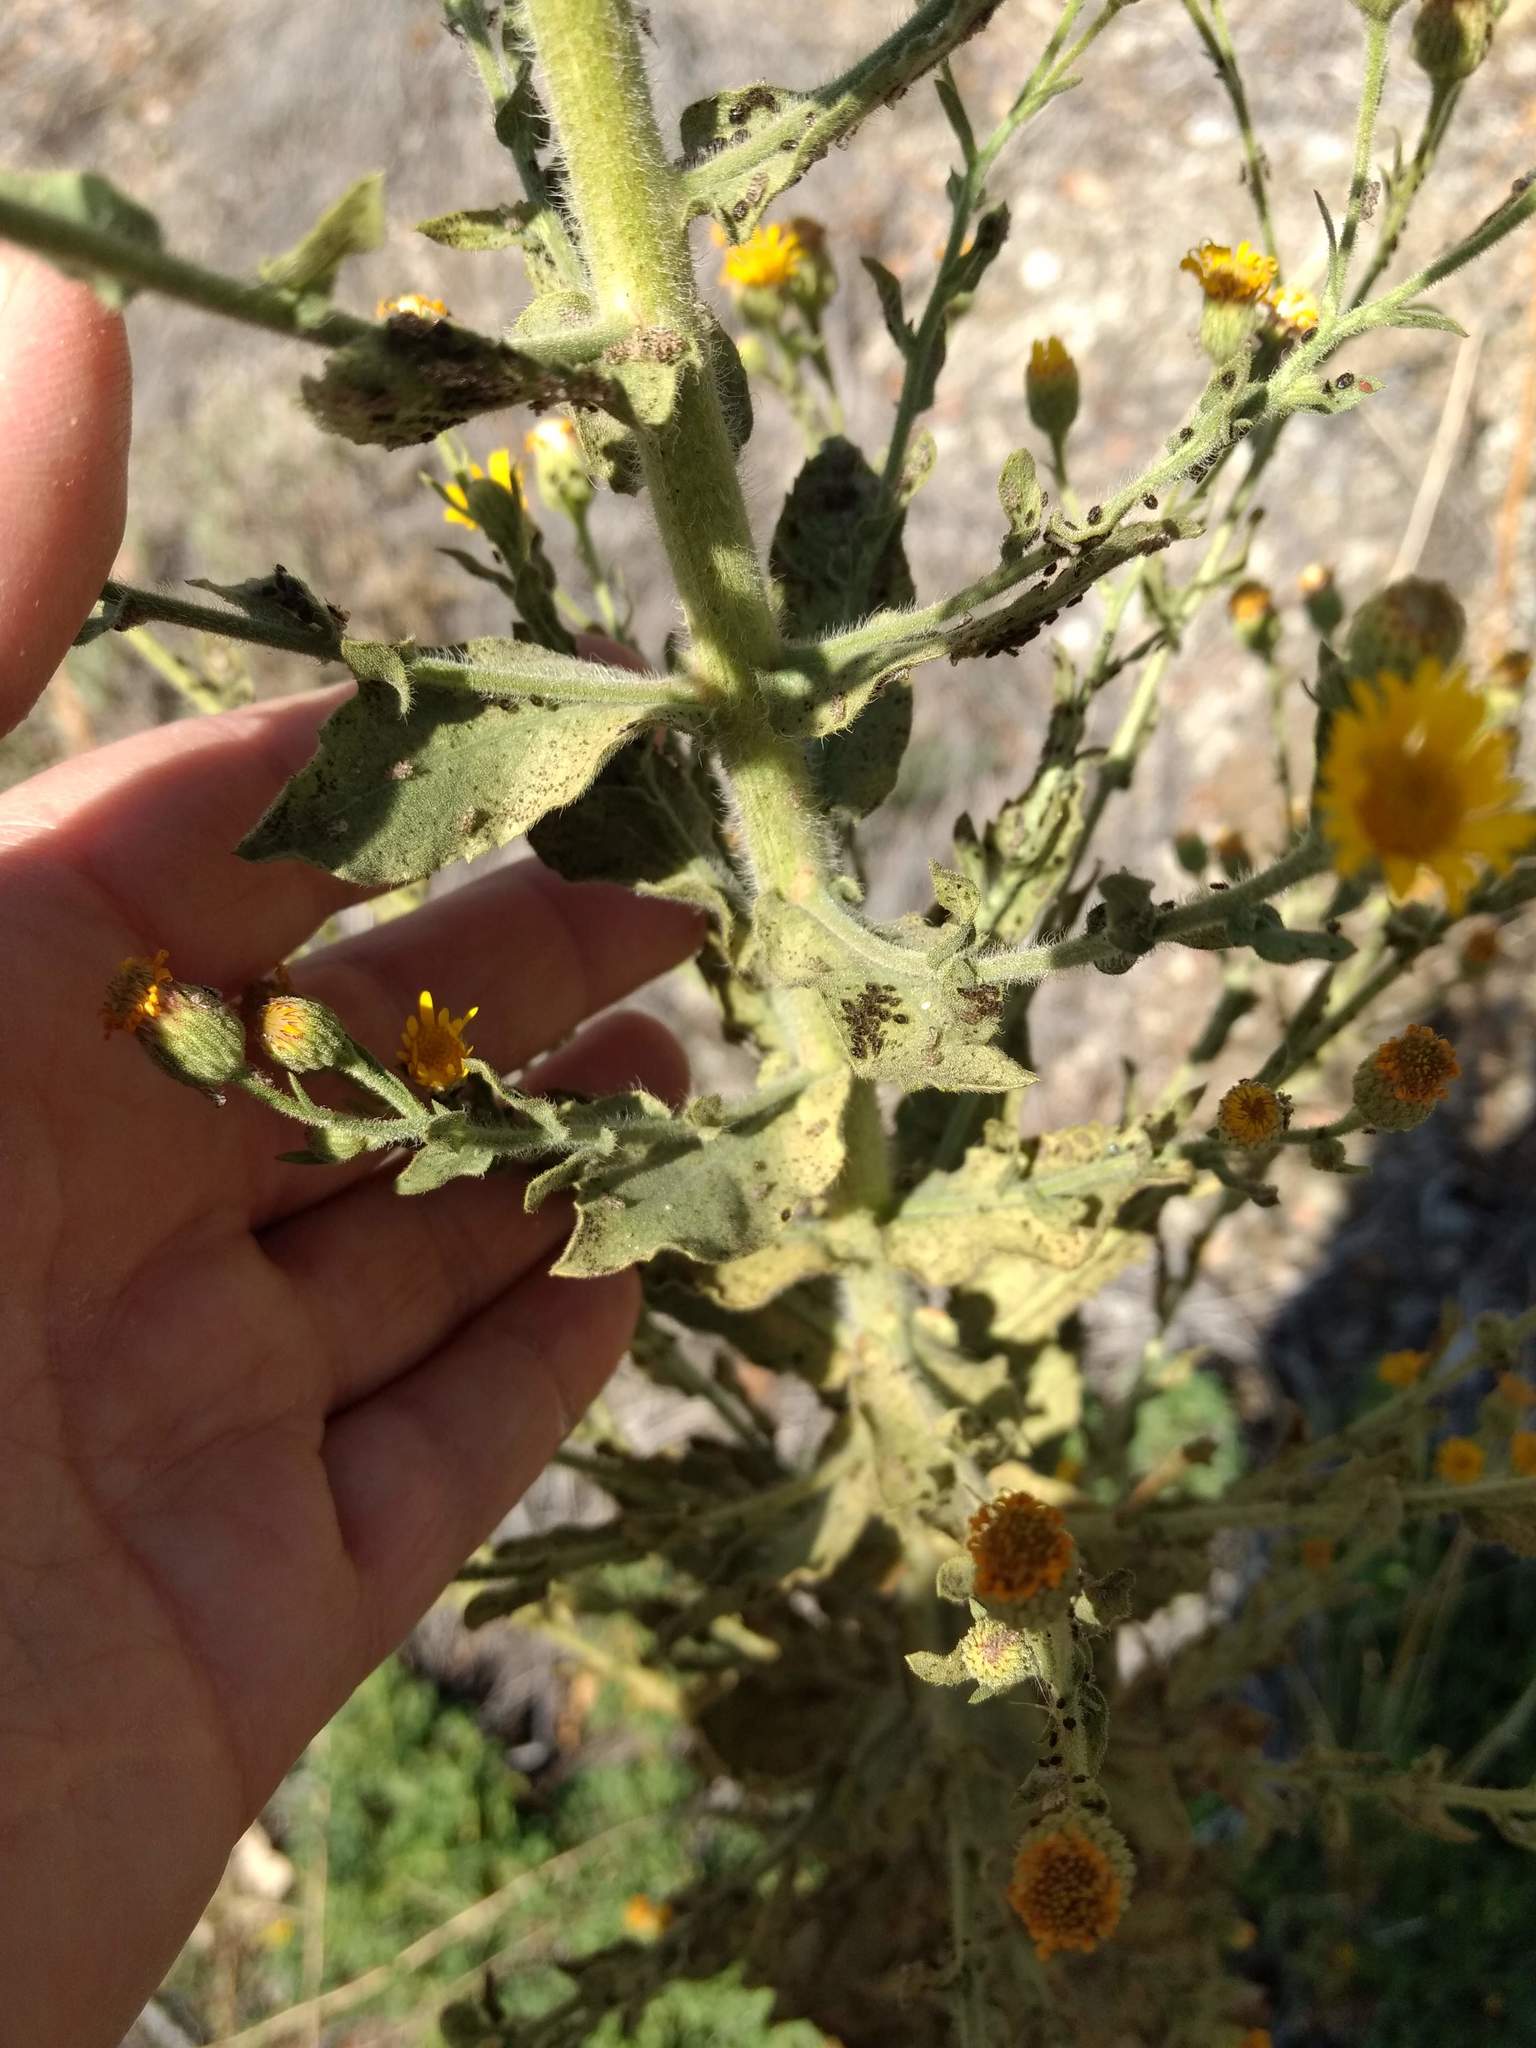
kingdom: Plantae
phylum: Tracheophyta
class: Magnoliopsida
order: Asterales
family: Asteraceae
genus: Heterotheca
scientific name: Heterotheca grandiflora
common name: Telegraphweed
